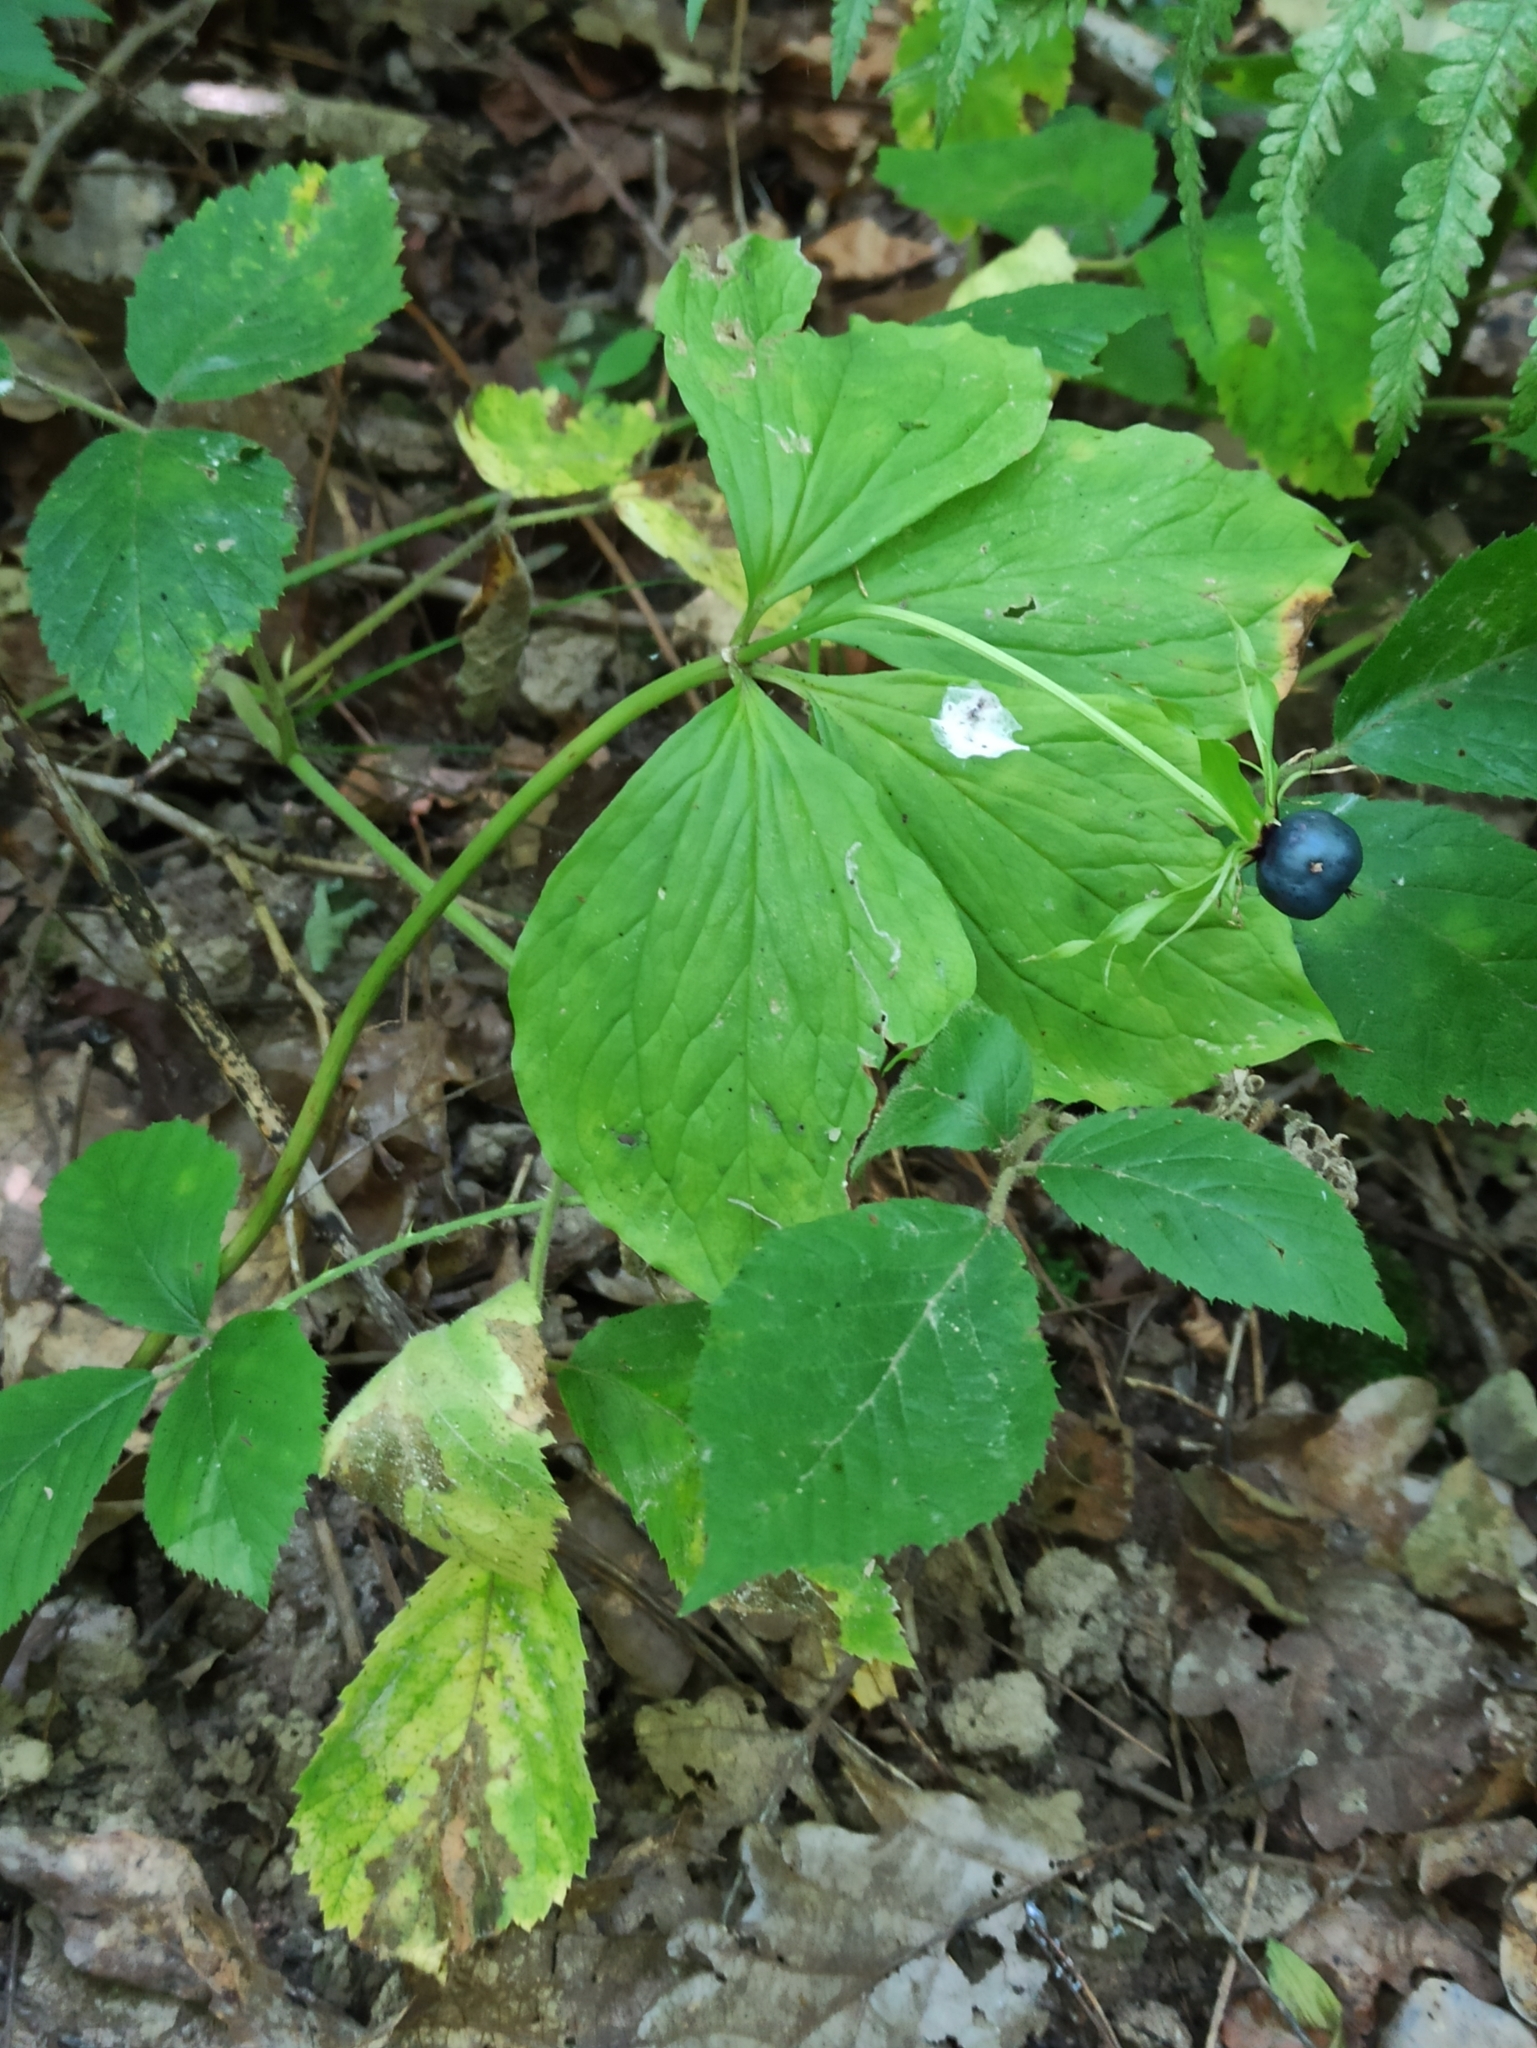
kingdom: Plantae
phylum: Tracheophyta
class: Liliopsida
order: Liliales
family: Melanthiaceae
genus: Paris
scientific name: Paris quadrifolia
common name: Herb-paris
